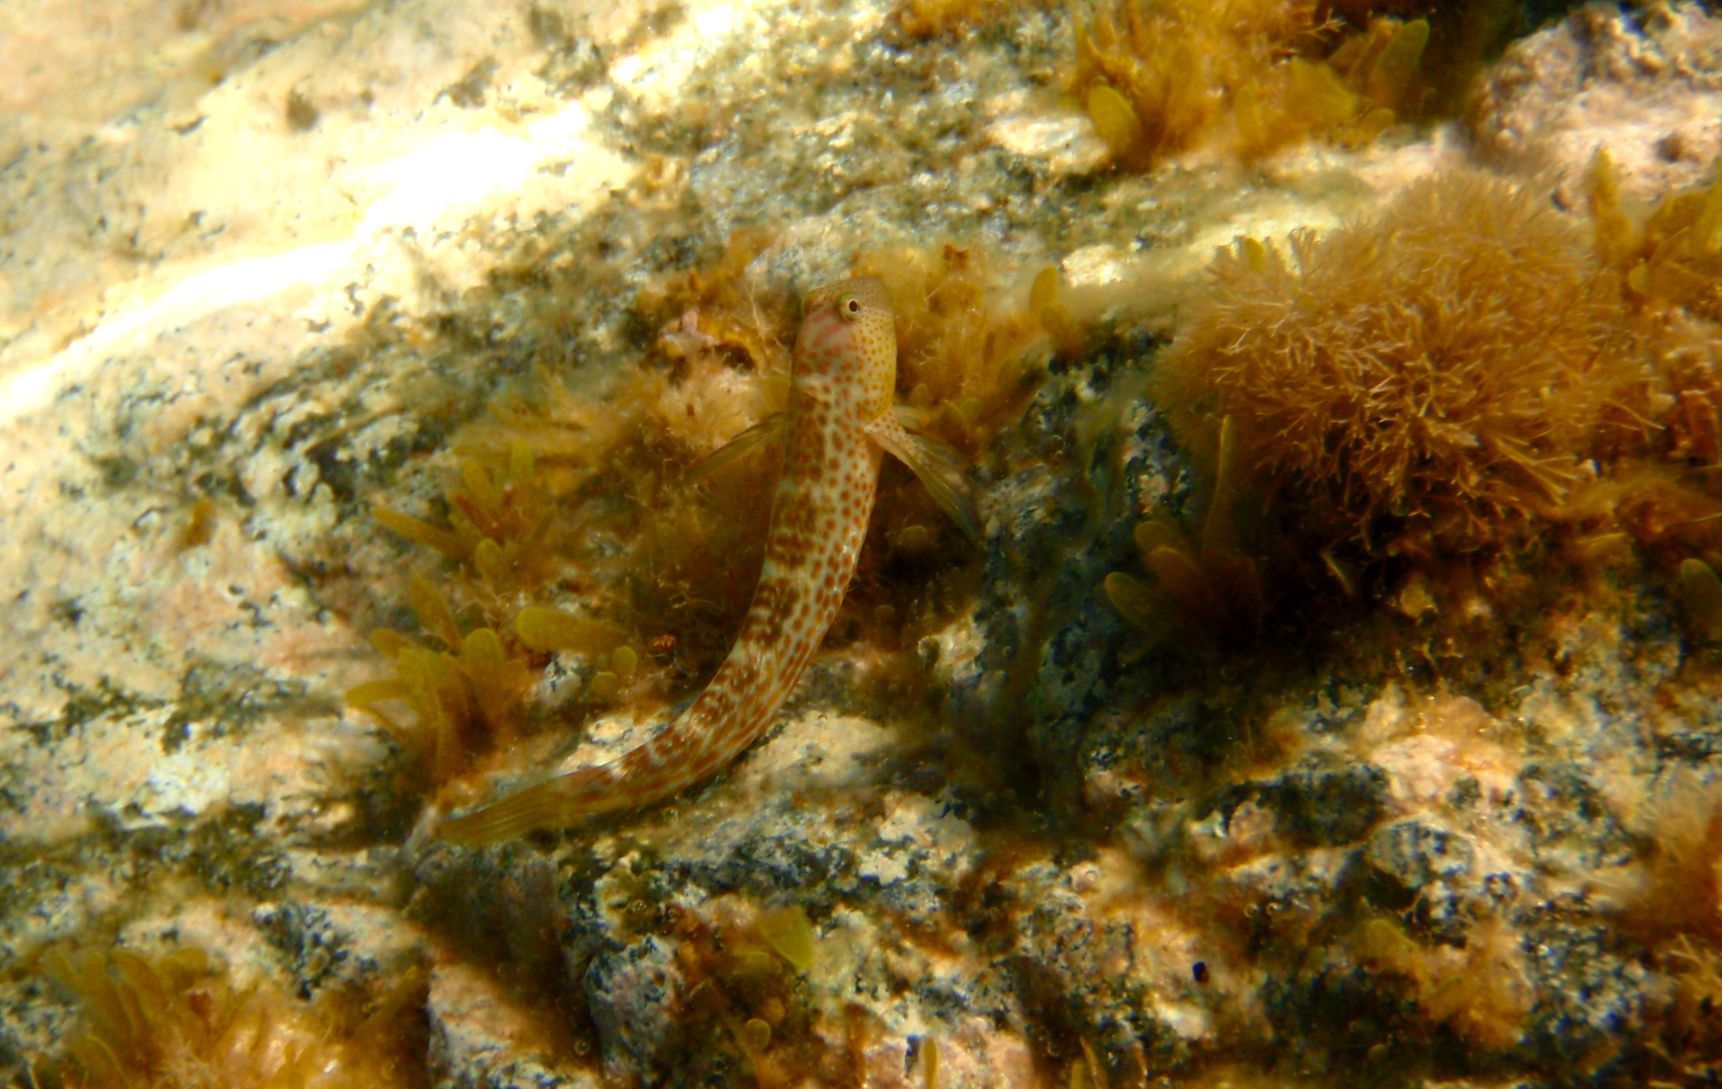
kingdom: Animalia
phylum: Chordata
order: Perciformes
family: Blenniidae
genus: Microlipophrys
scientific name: Microlipophrys canevae
